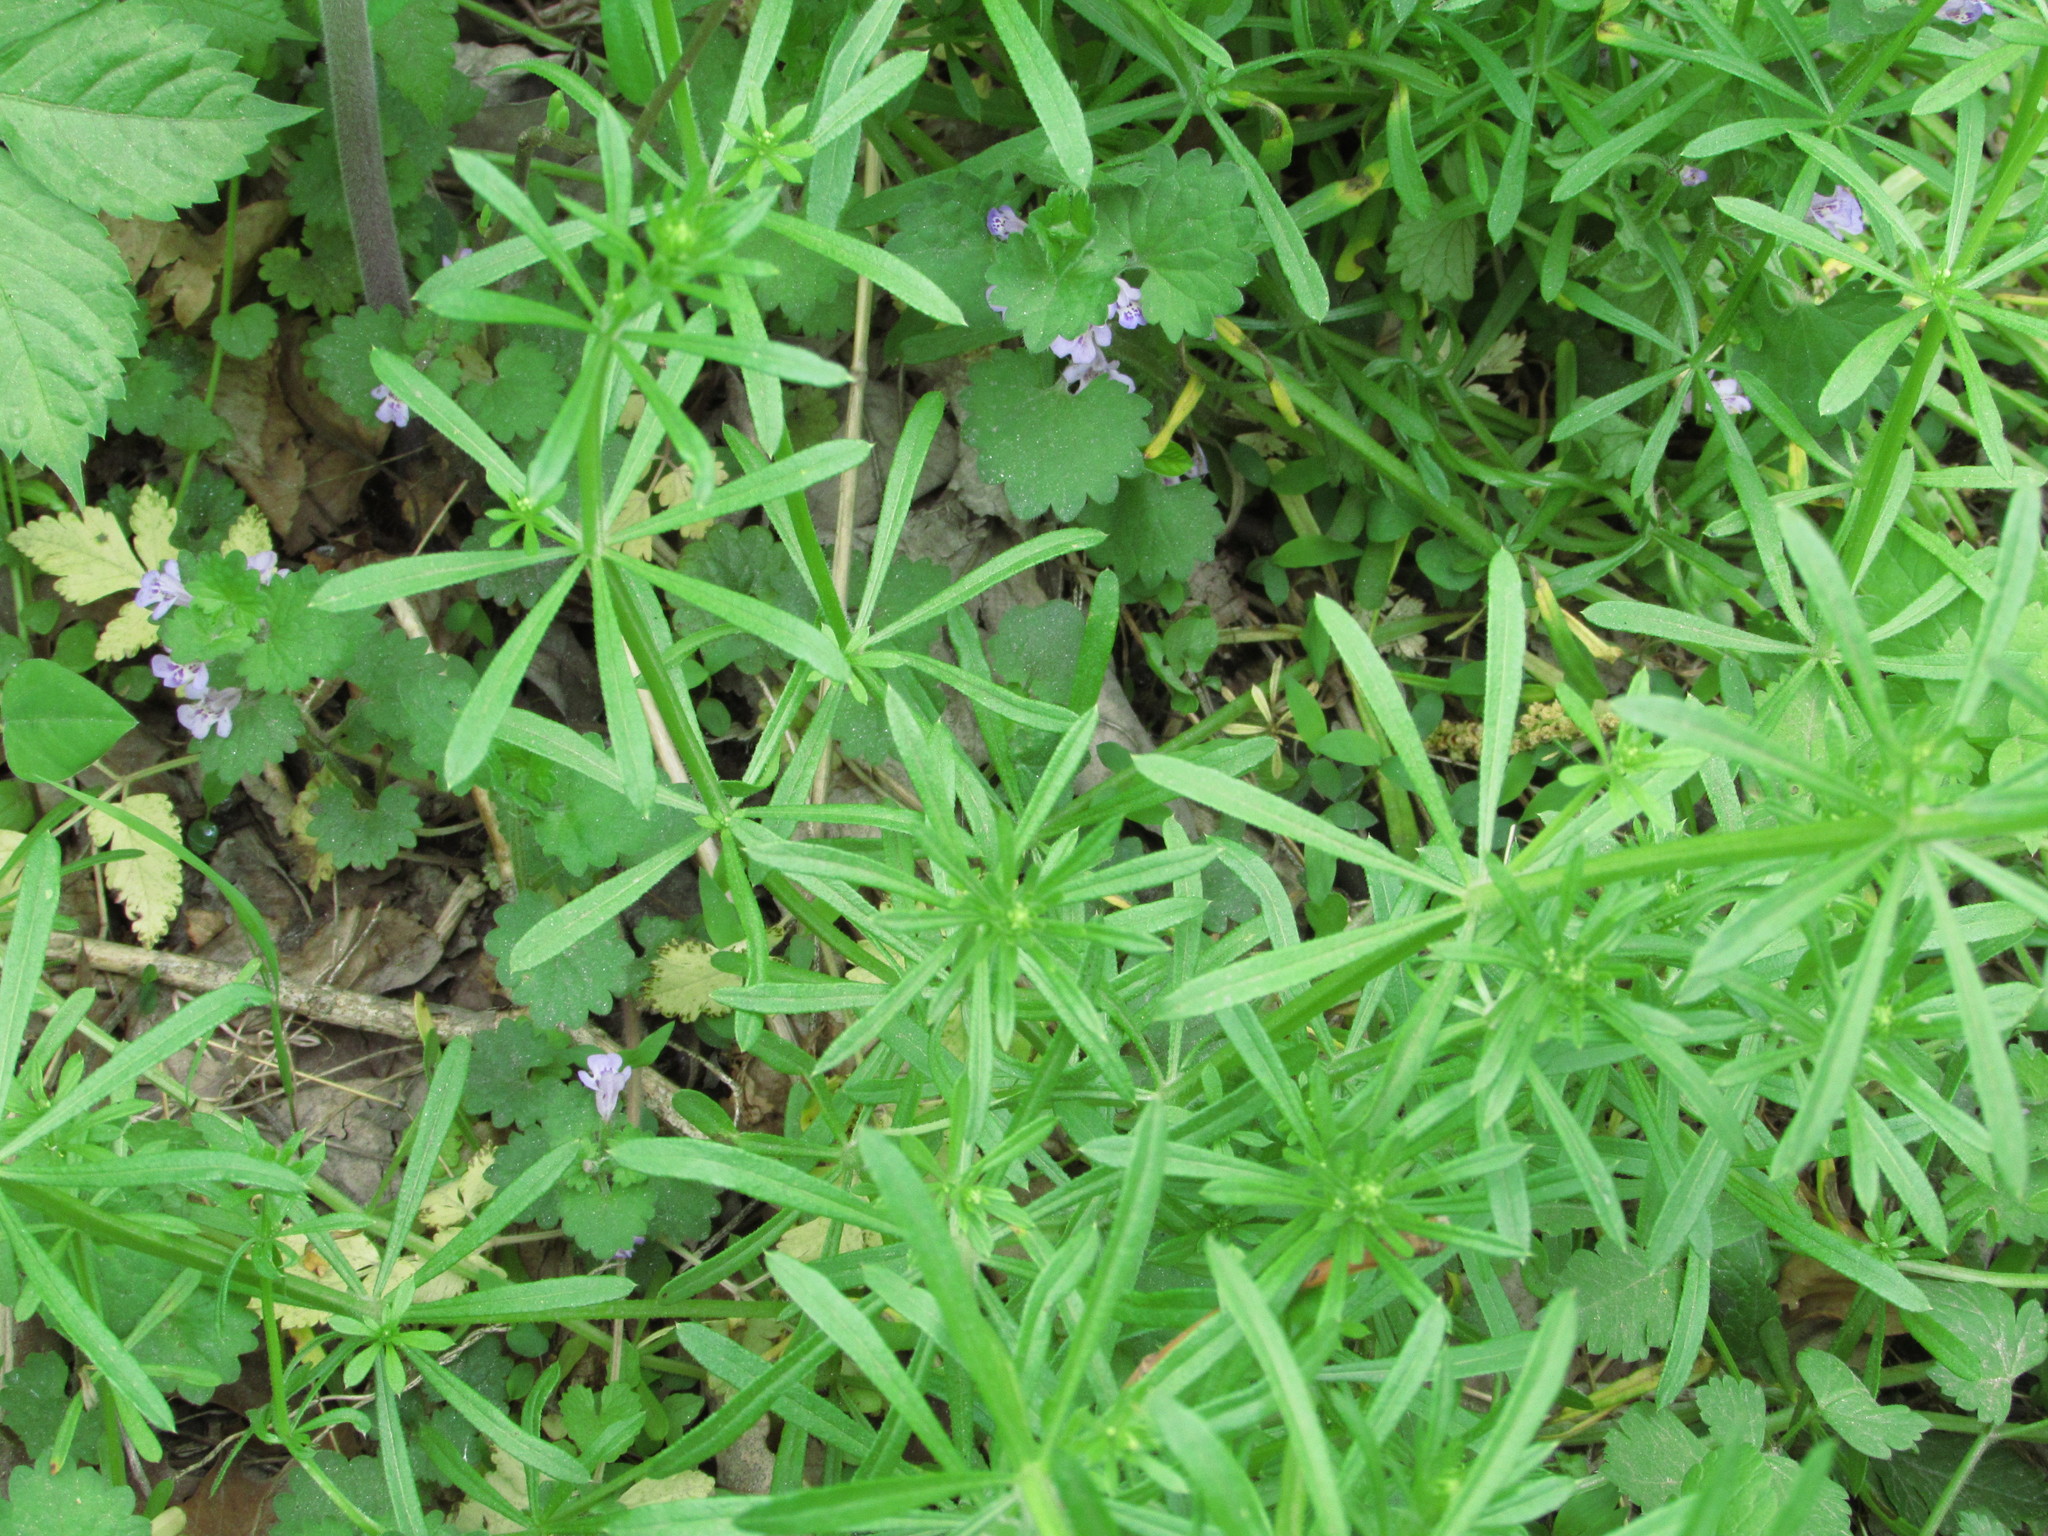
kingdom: Plantae
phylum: Tracheophyta
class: Magnoliopsida
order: Gentianales
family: Rubiaceae
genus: Galium
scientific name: Galium aparine
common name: Cleavers
